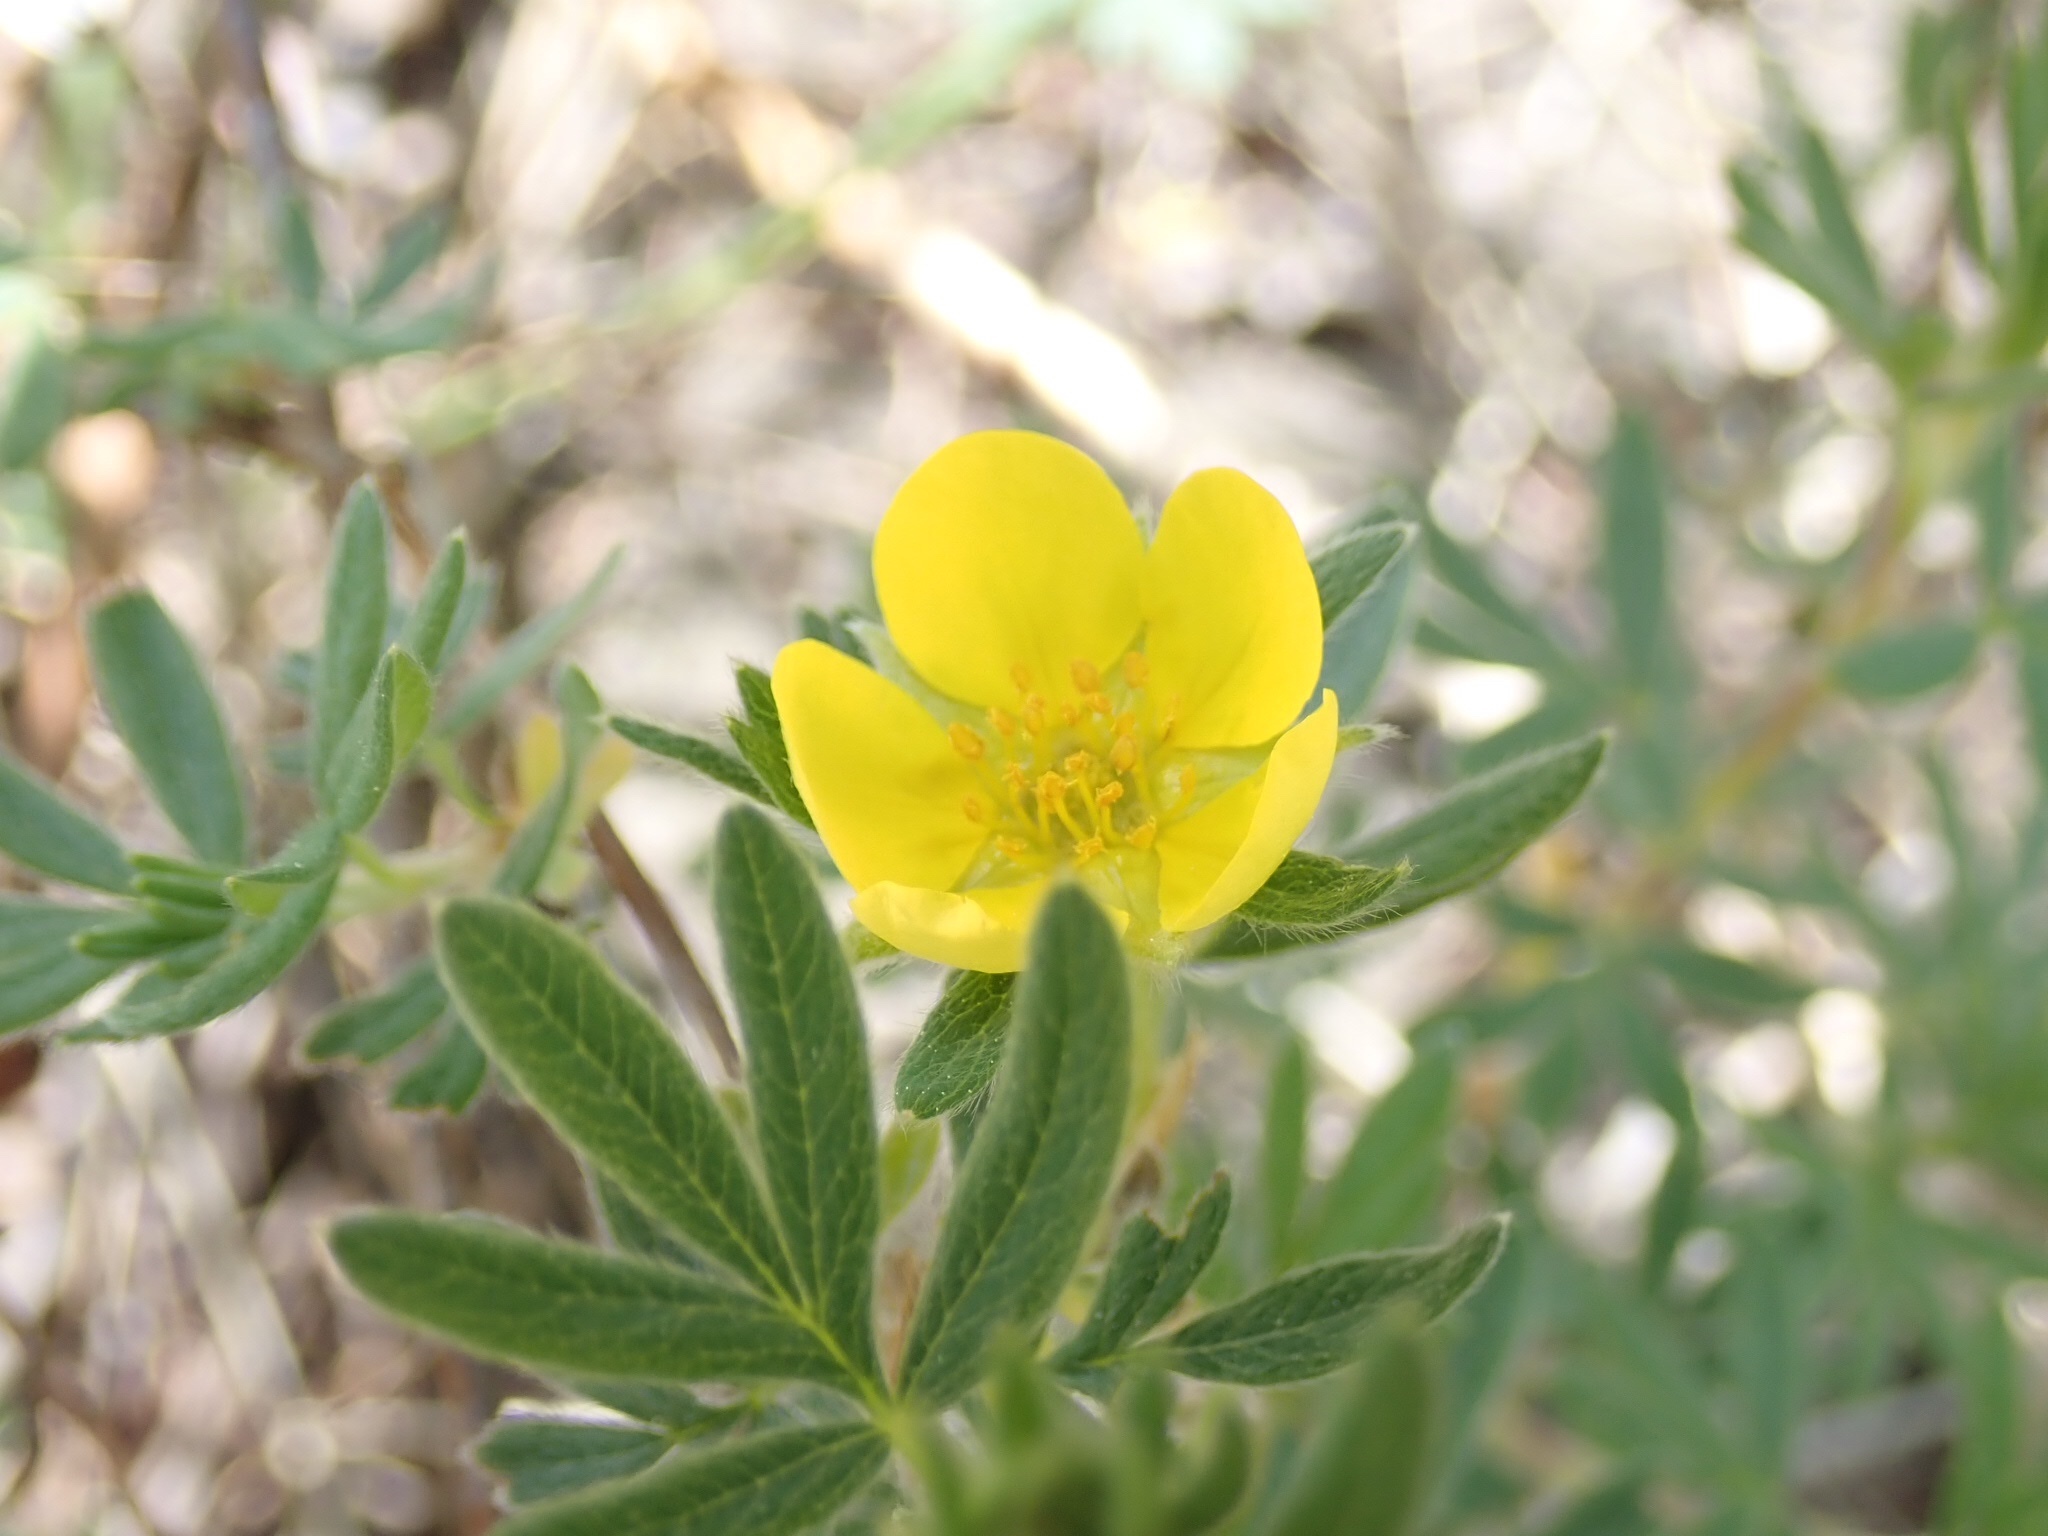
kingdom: Plantae
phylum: Tracheophyta
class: Magnoliopsida
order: Rosales
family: Rosaceae
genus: Dasiphora
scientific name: Dasiphora fruticosa
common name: Shrubby cinquefoil
